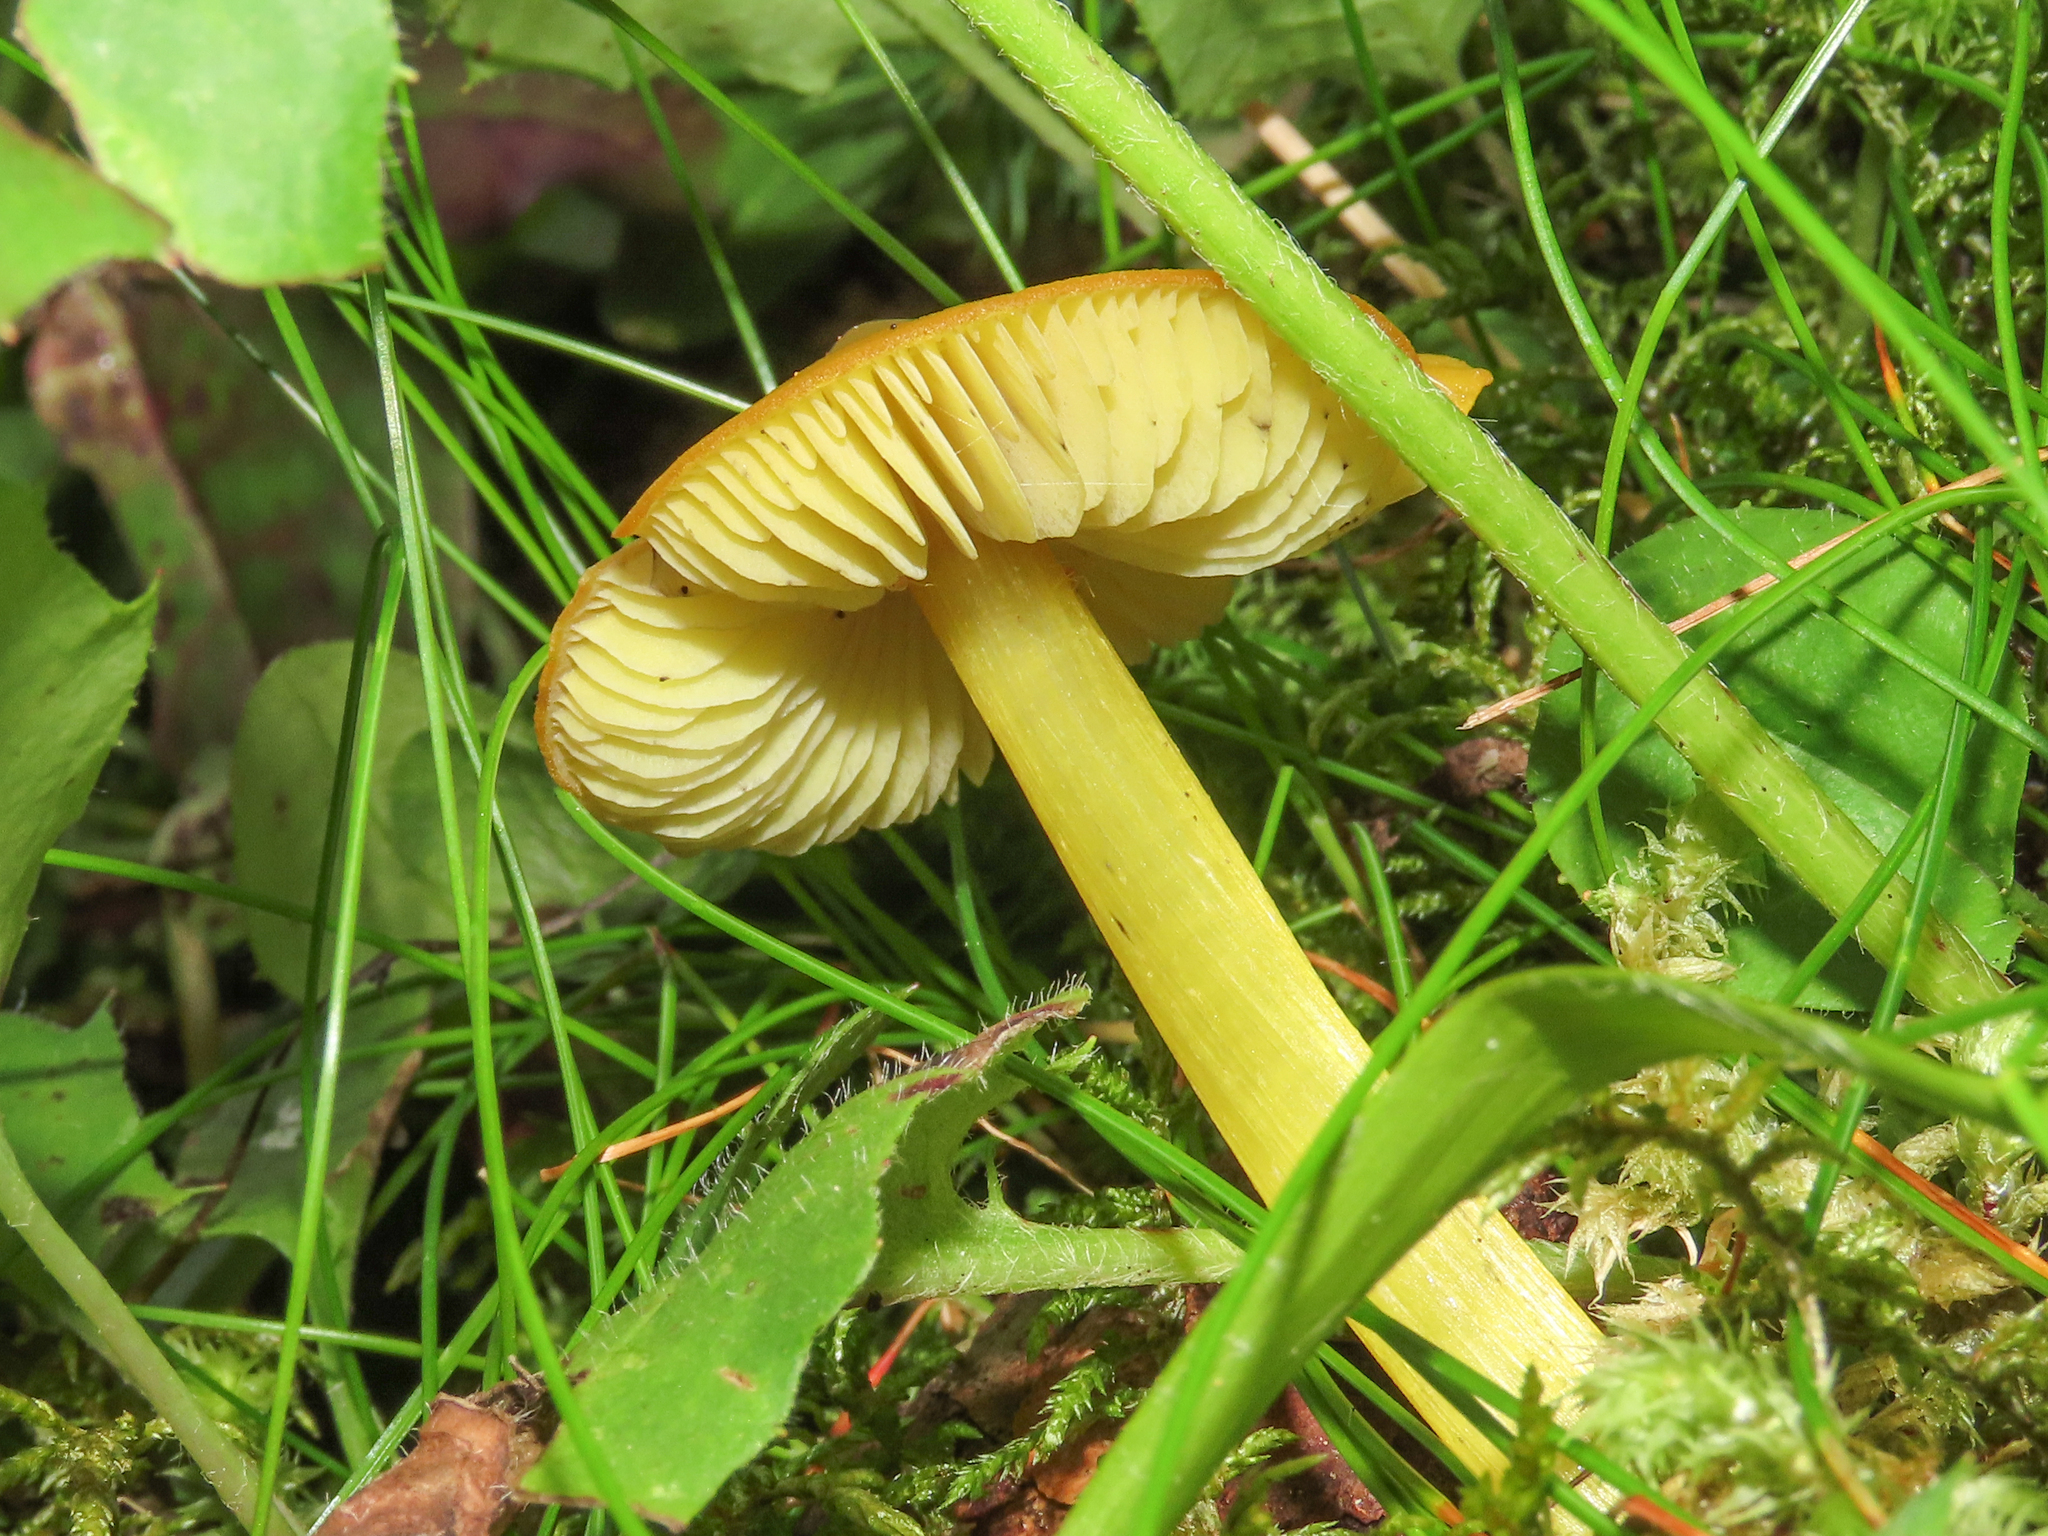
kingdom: Fungi
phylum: Basidiomycota
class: Agaricomycetes
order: Agaricales
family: Hygrophoraceae
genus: Hygrocybe
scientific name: Hygrocybe conica
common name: Blackening wax-cap
